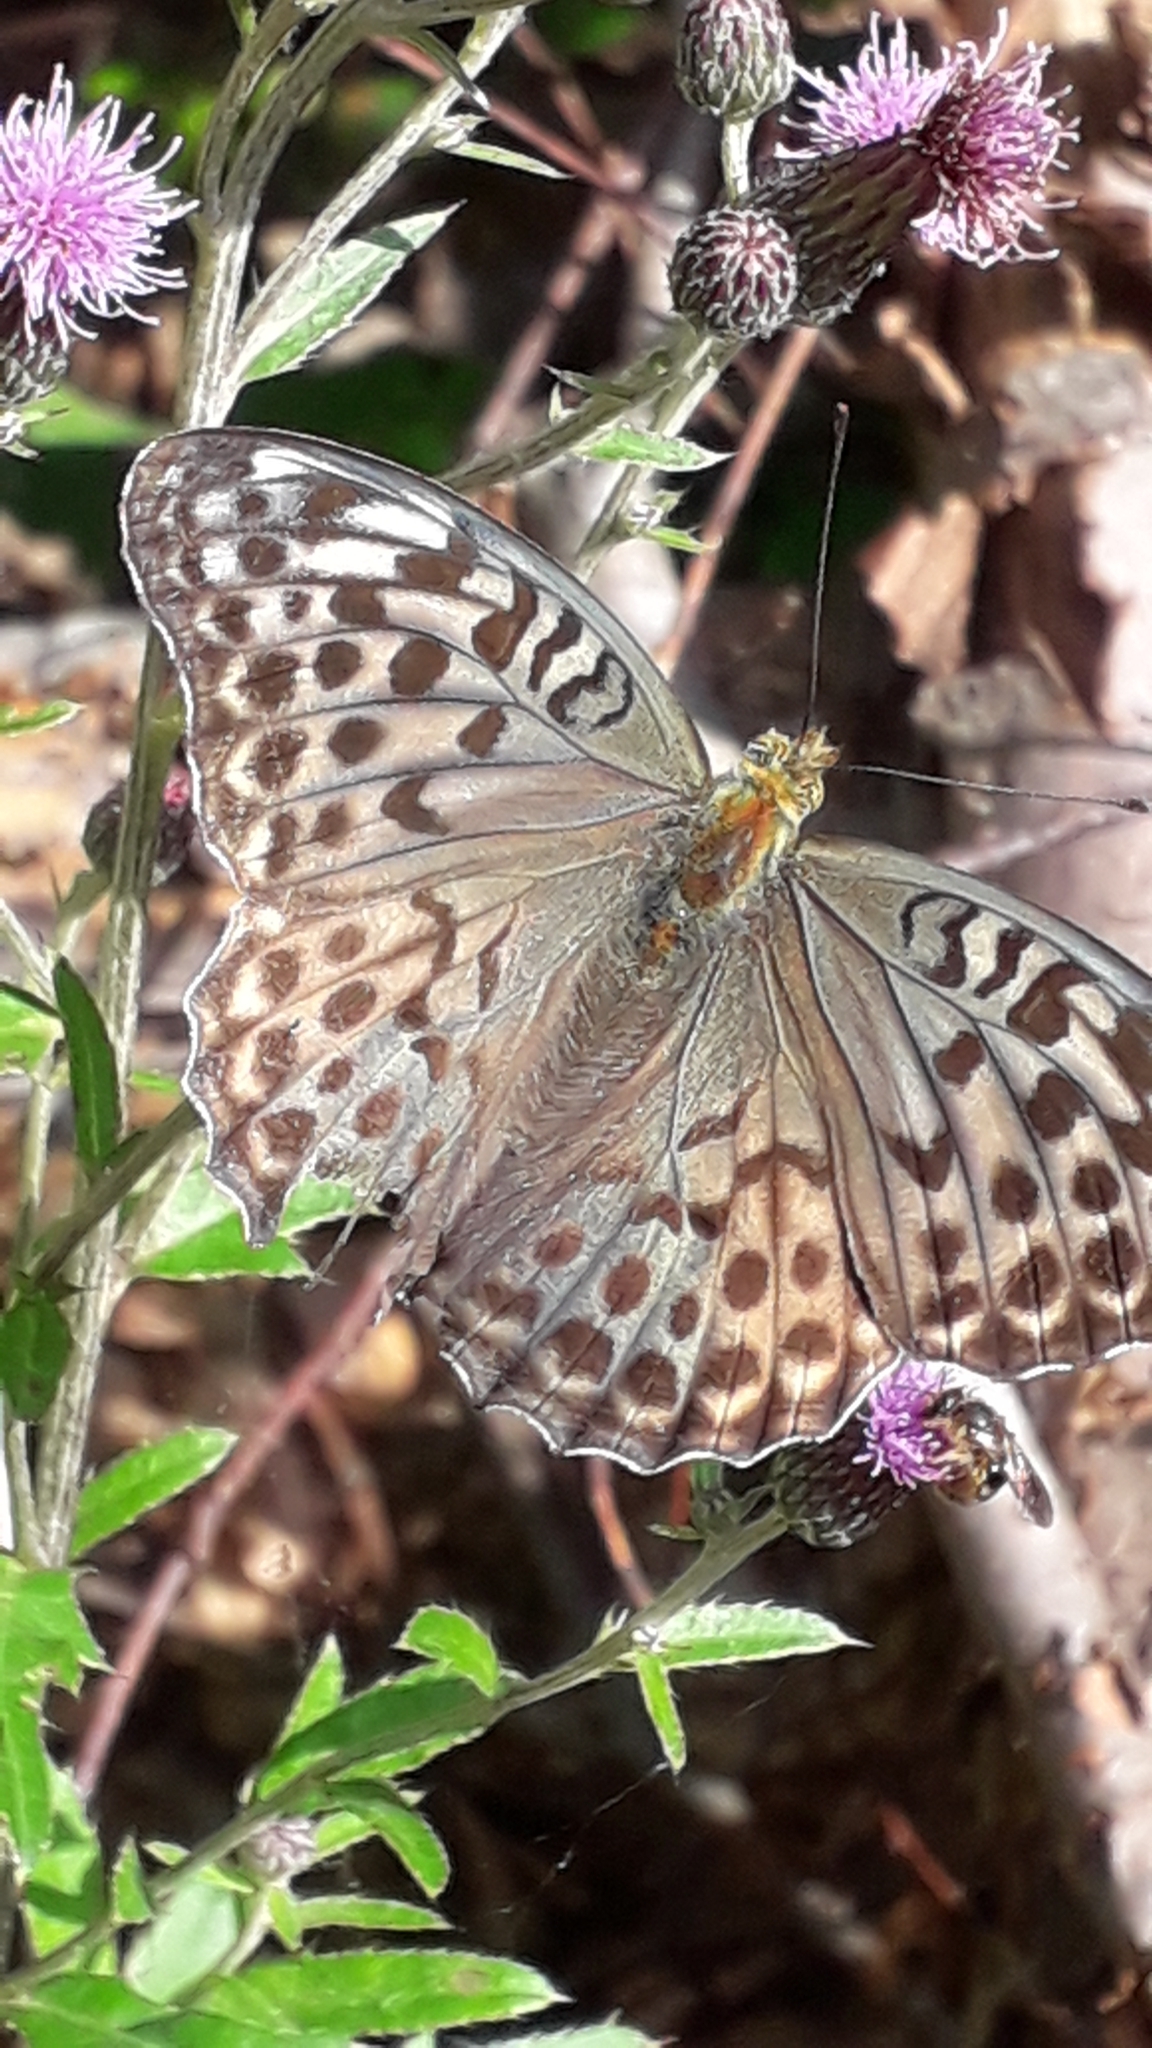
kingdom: Animalia
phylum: Arthropoda
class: Insecta
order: Lepidoptera
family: Nymphalidae
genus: Argynnis
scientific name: Argynnis paphia
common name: Silver-washed fritillary
